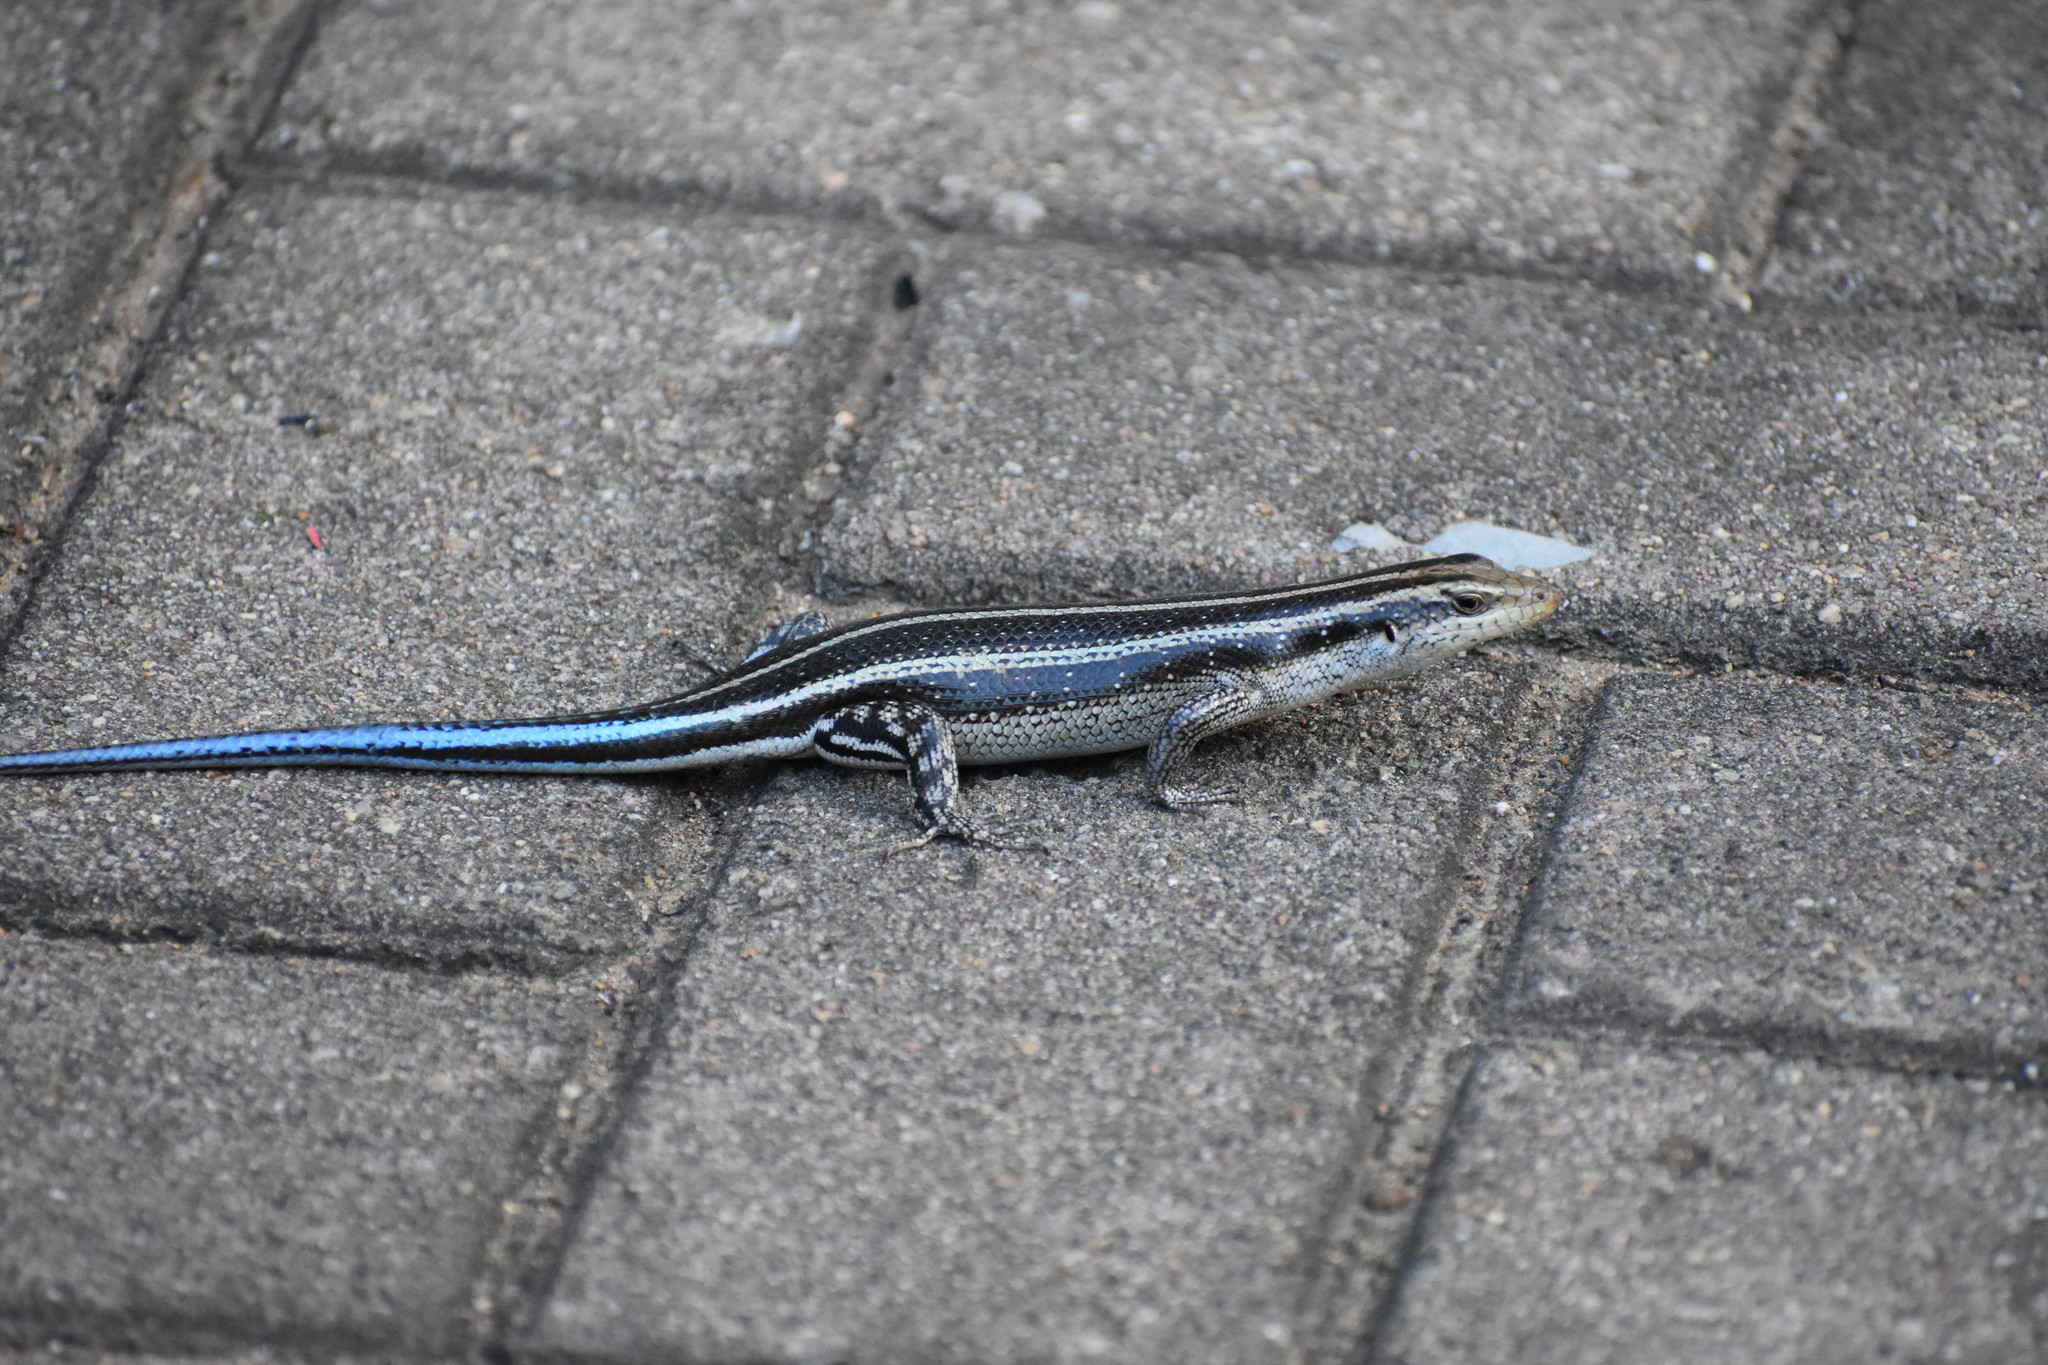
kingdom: Animalia
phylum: Chordata
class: Squamata
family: Scincidae
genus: Trachylepis
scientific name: Trachylepis margaritifera
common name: Rainbow skink
